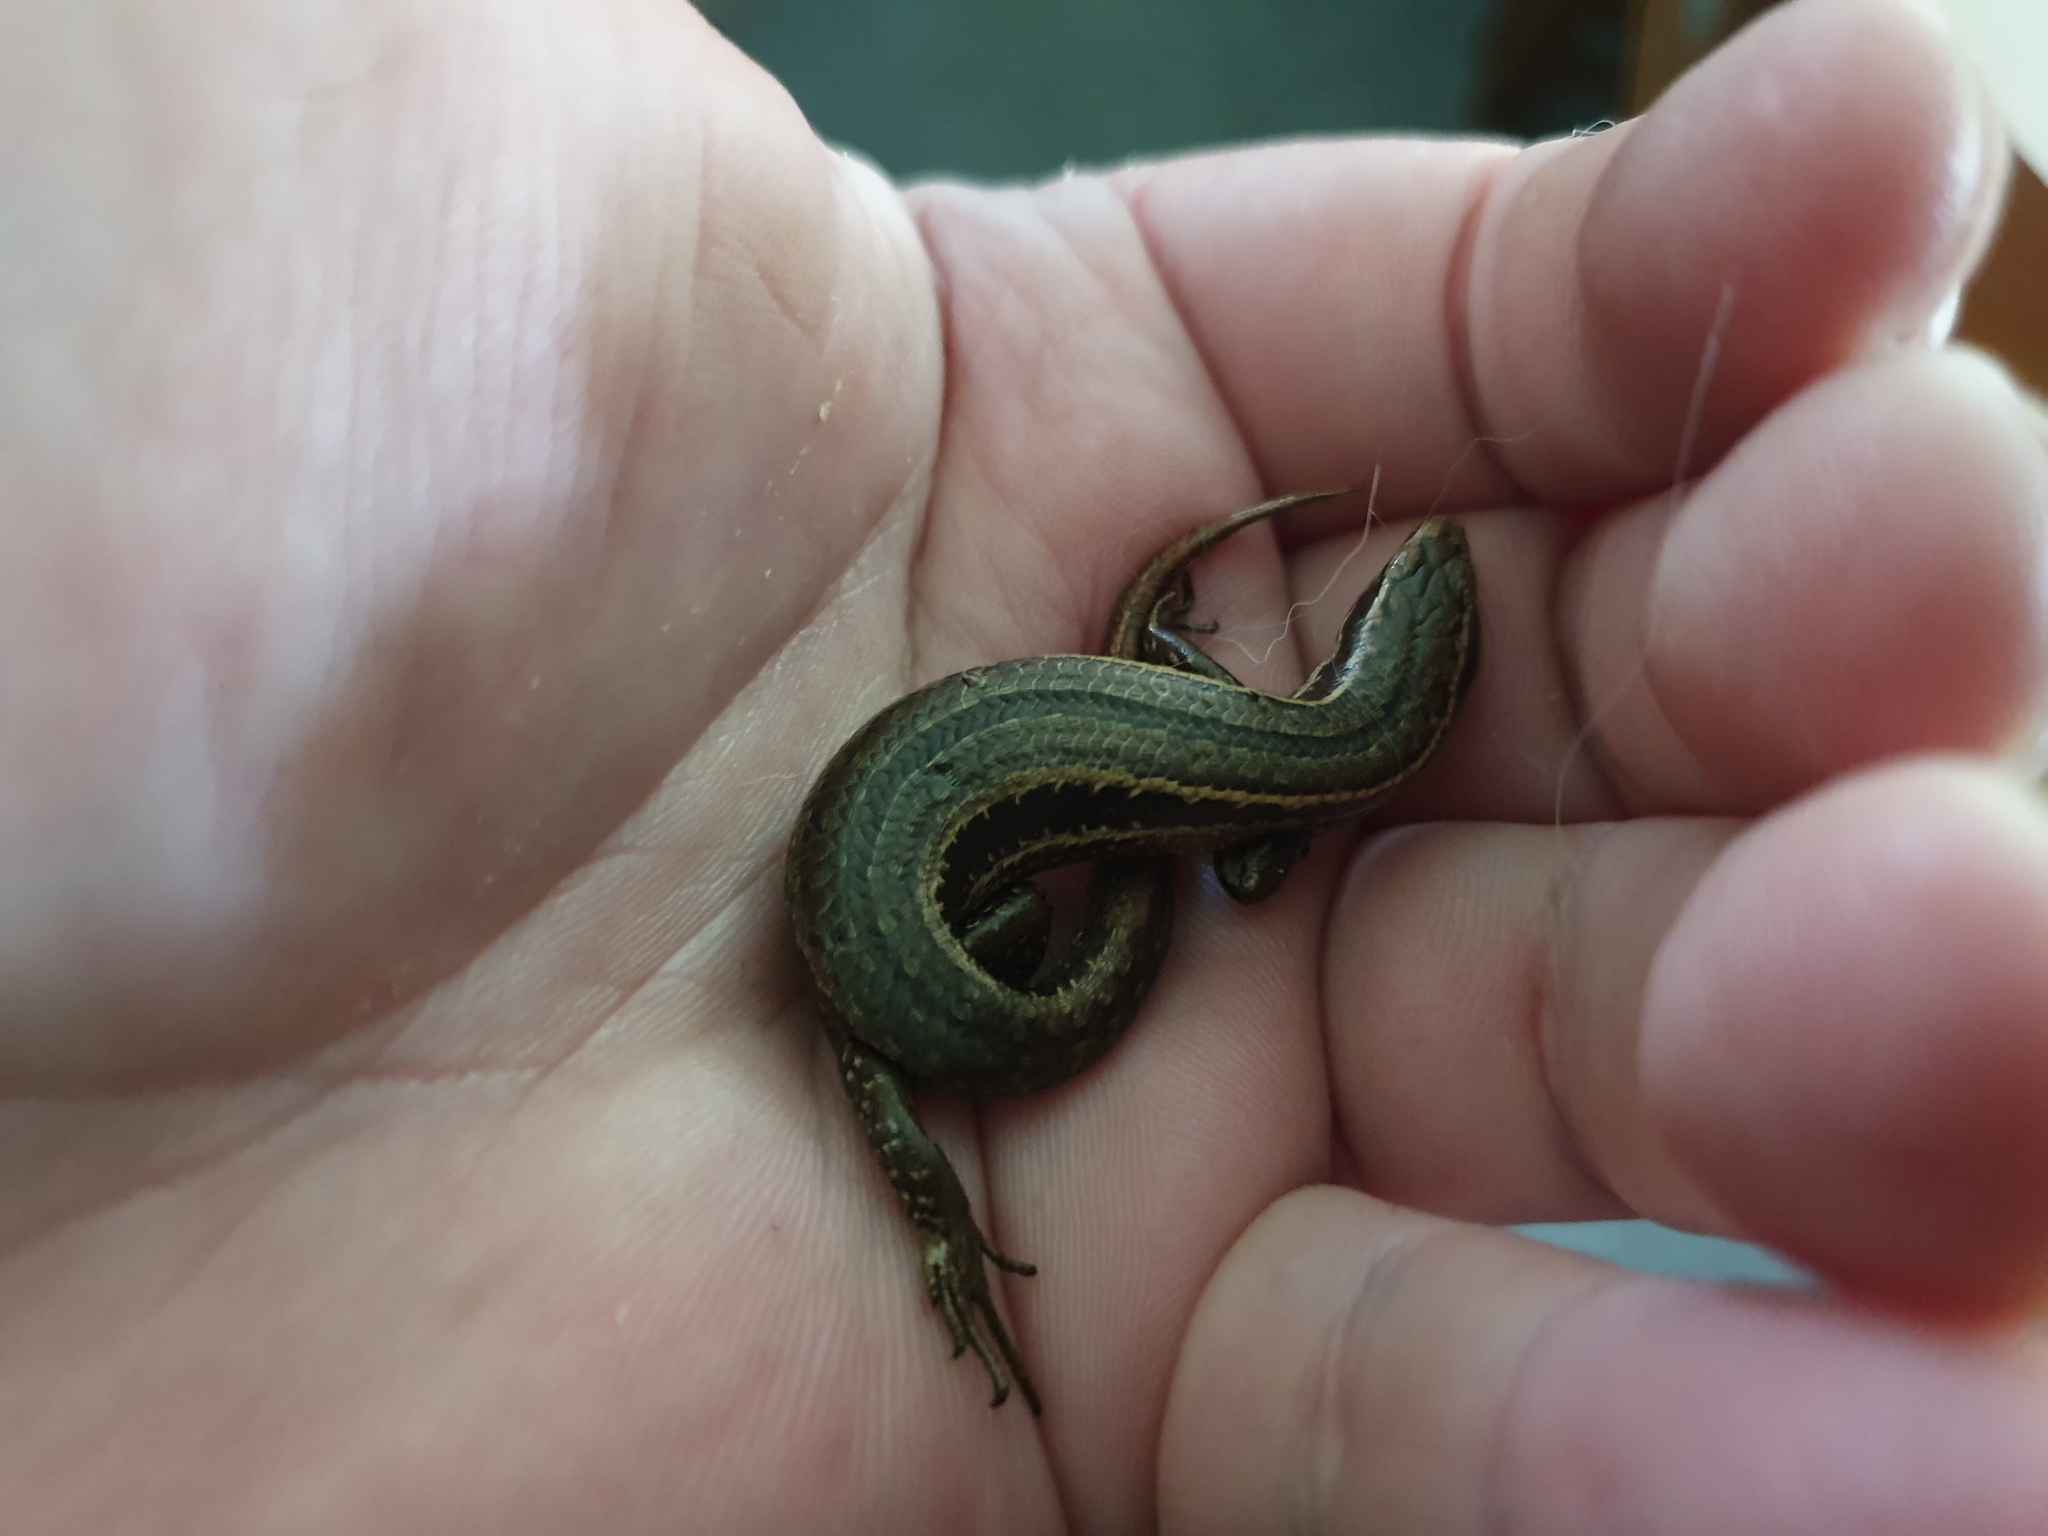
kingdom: Animalia
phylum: Chordata
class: Squamata
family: Scincidae
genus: Oligosoma
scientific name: Oligosoma polychroma
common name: Common new zealand skink
